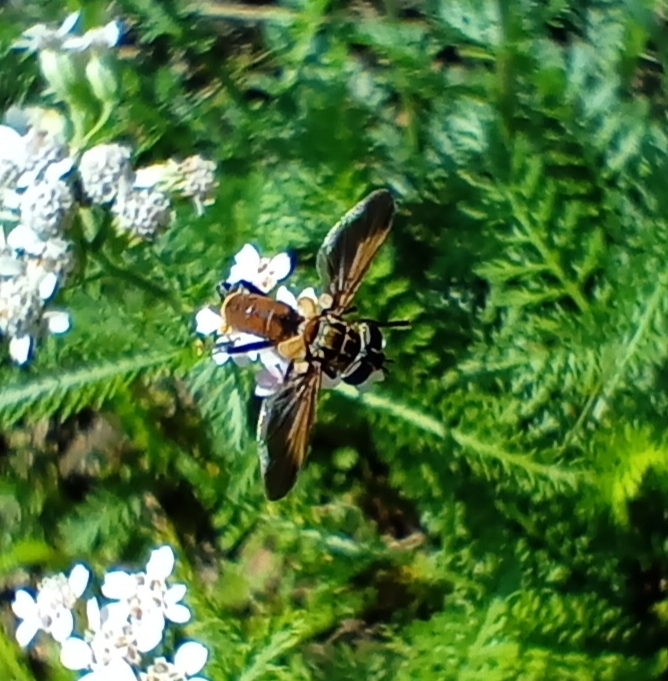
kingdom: Animalia
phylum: Arthropoda
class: Insecta
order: Diptera
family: Tachinidae
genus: Trichopoda
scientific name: Trichopoda pictipennis
